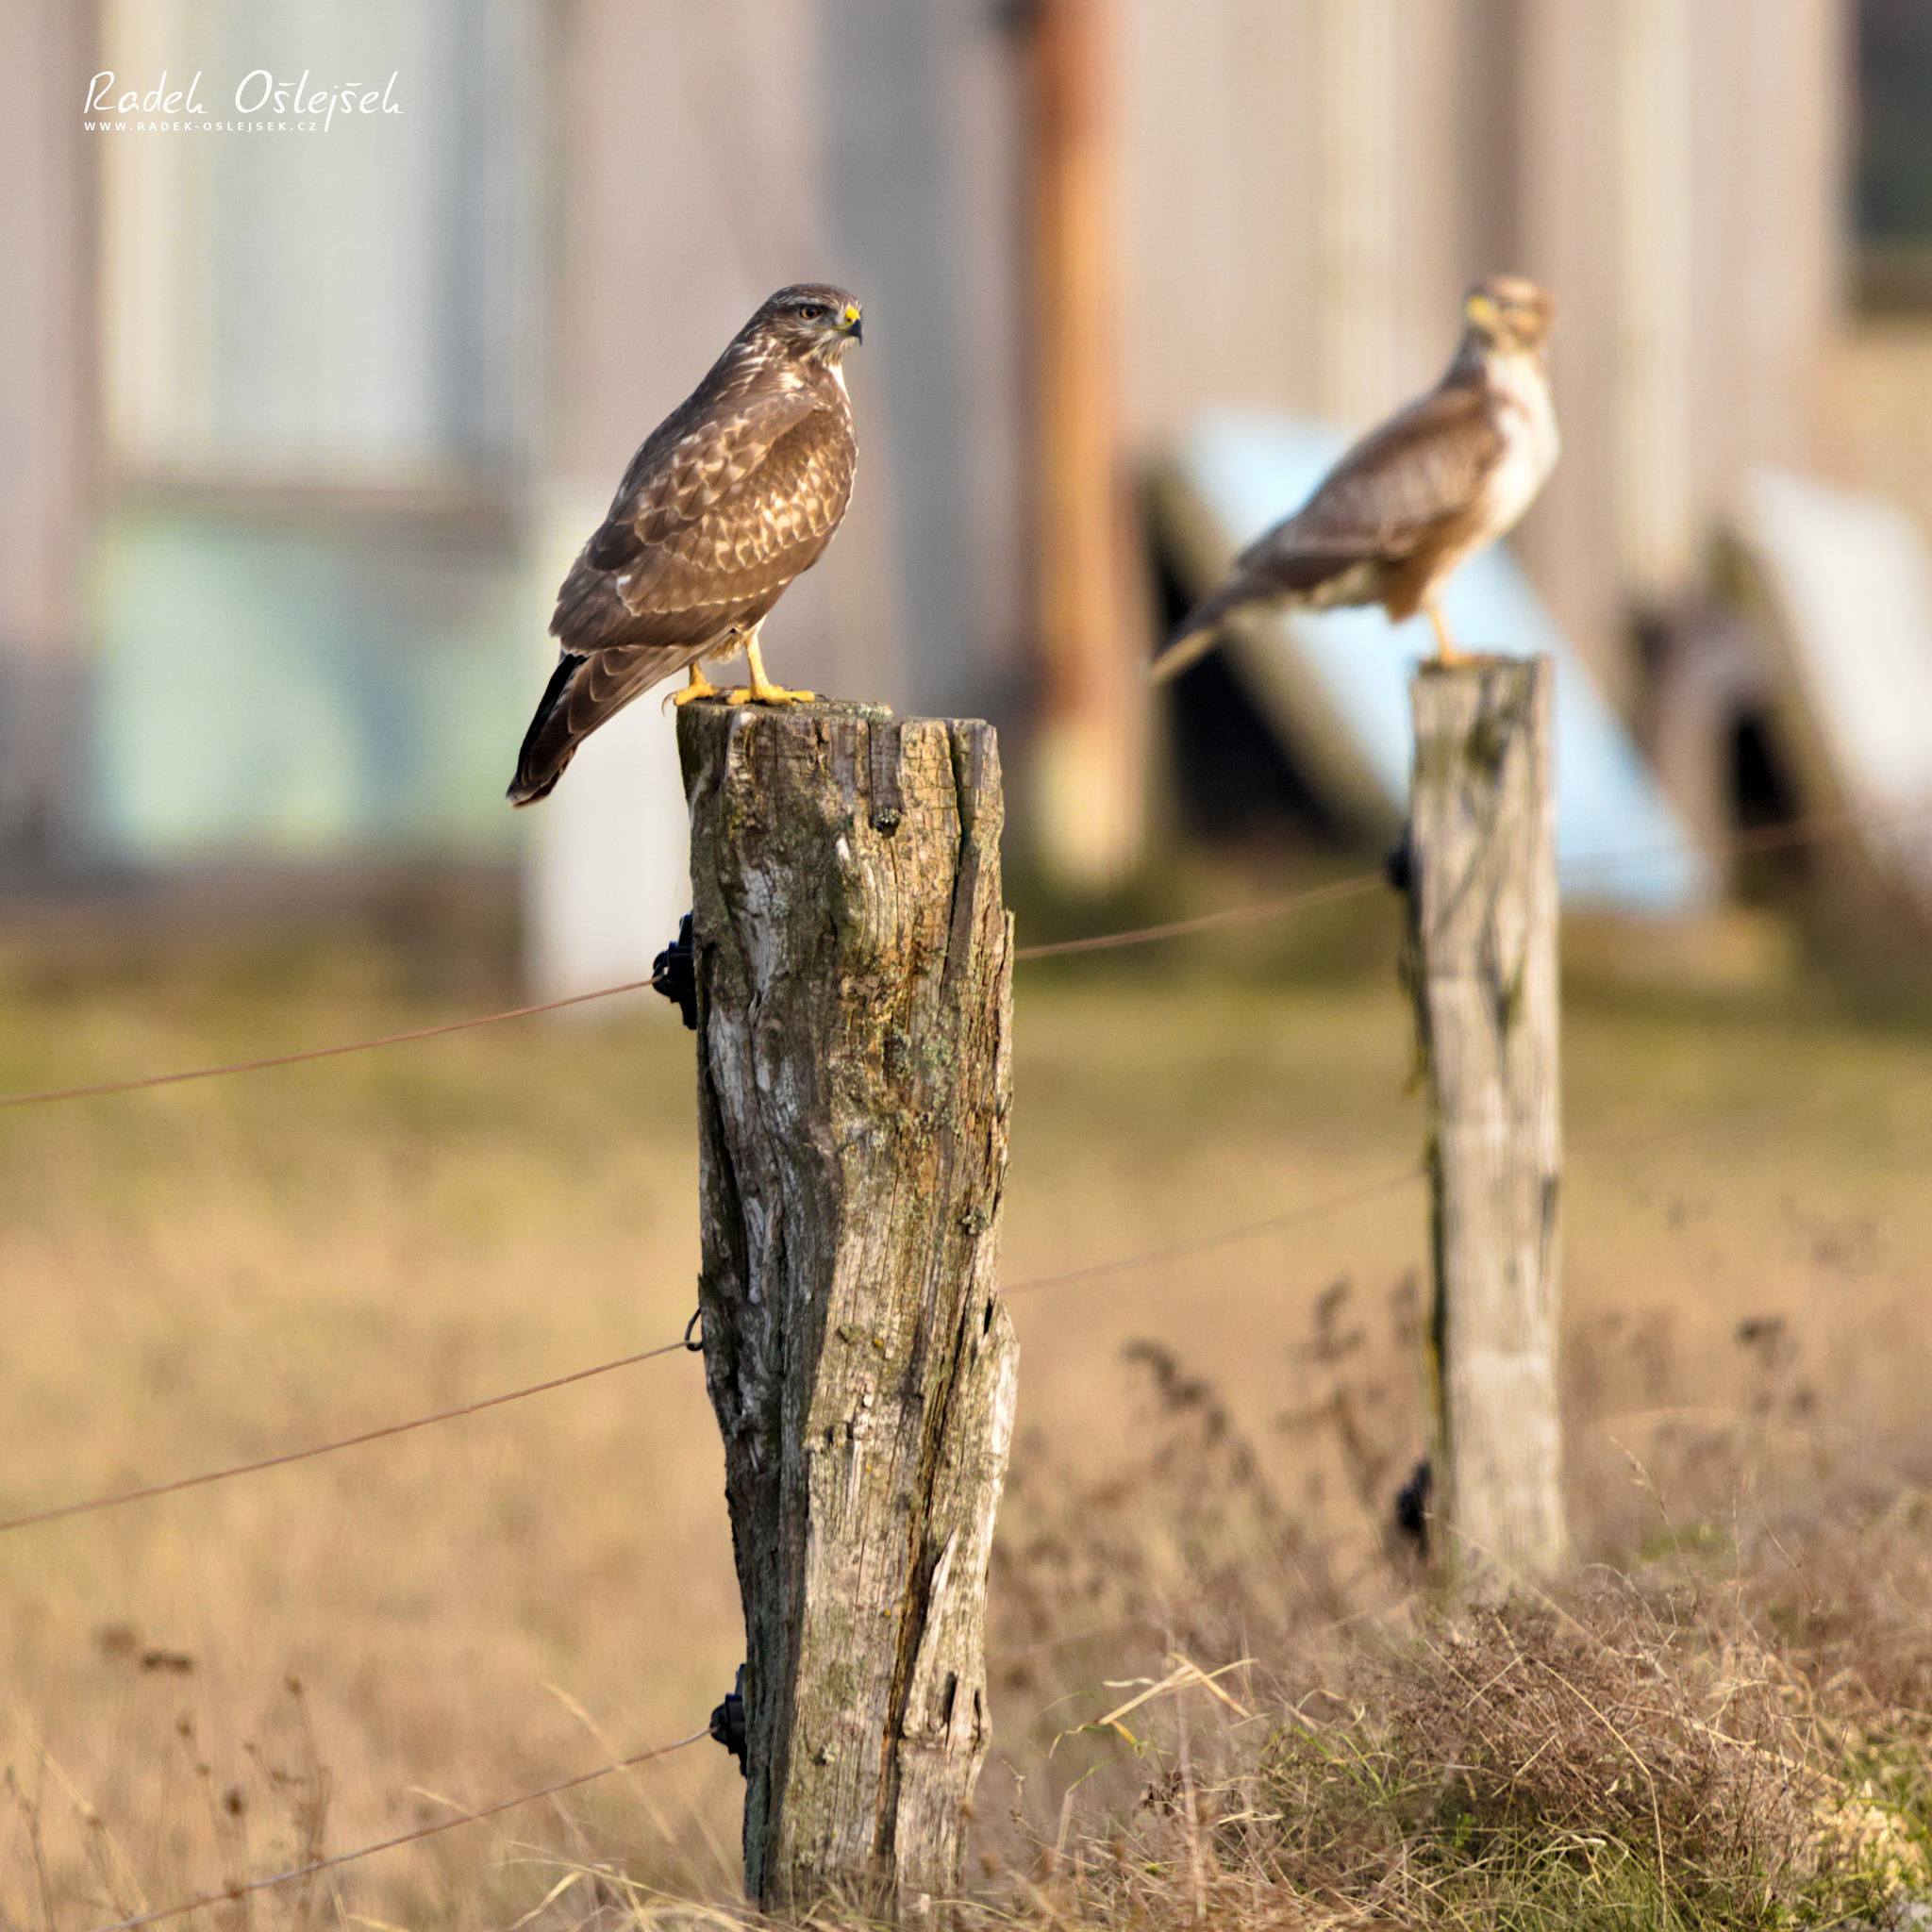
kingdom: Animalia
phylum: Chordata
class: Aves
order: Accipitriformes
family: Accipitridae
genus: Buteo
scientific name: Buteo buteo
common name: Common buzzard
